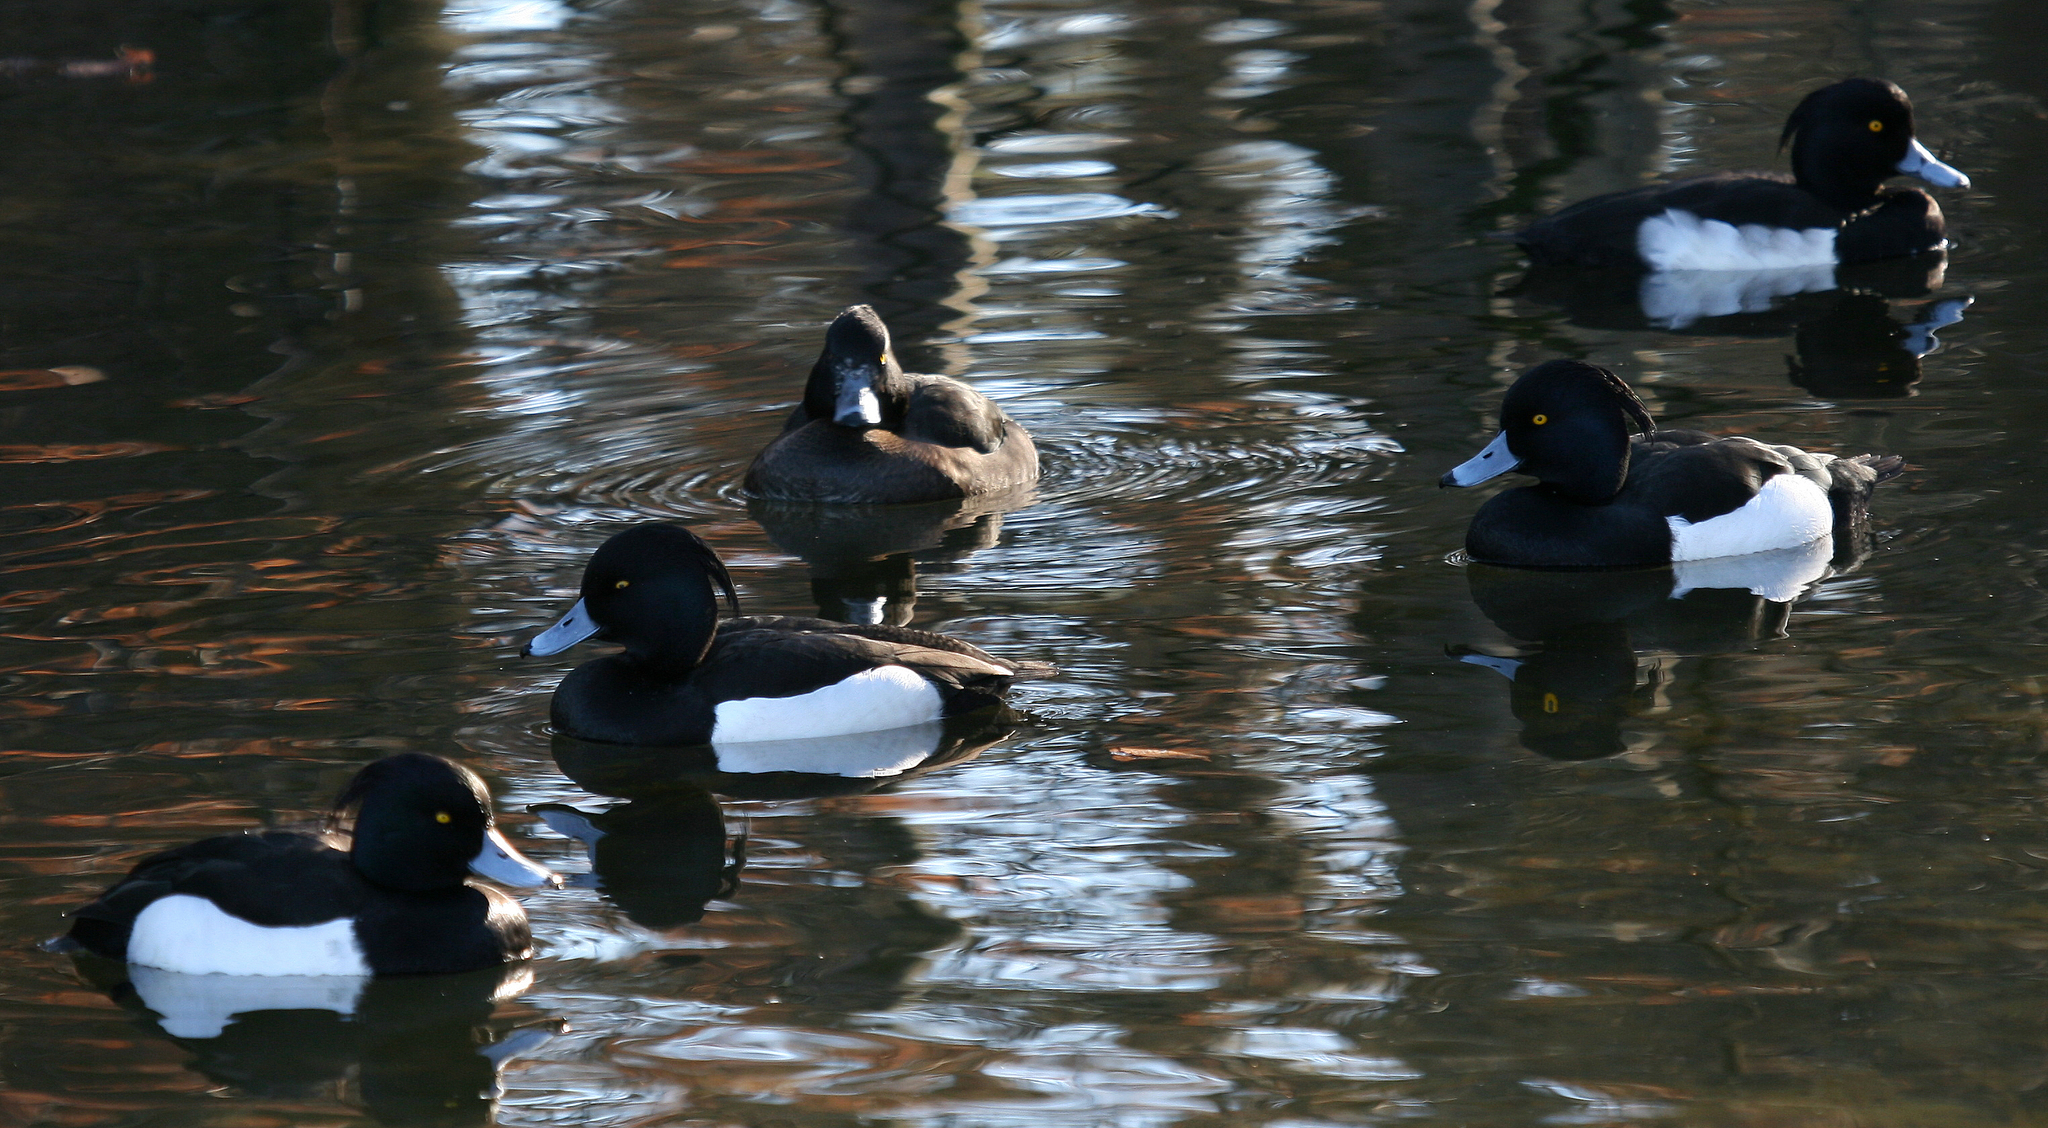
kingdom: Animalia
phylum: Chordata
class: Aves
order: Anseriformes
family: Anatidae
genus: Aythya
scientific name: Aythya fuligula
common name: Tufted duck
